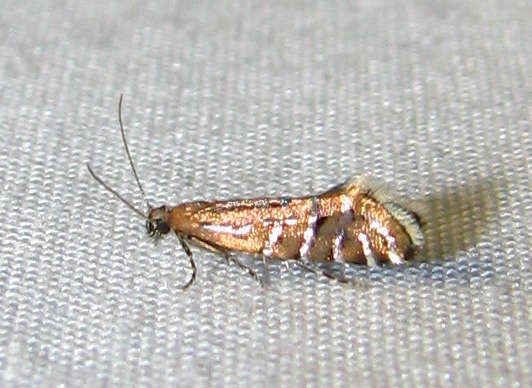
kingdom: Animalia
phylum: Arthropoda
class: Insecta
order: Lepidoptera
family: Glyphipterigidae
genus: Glyphipterix
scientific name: Glyphipterix perimetalla
